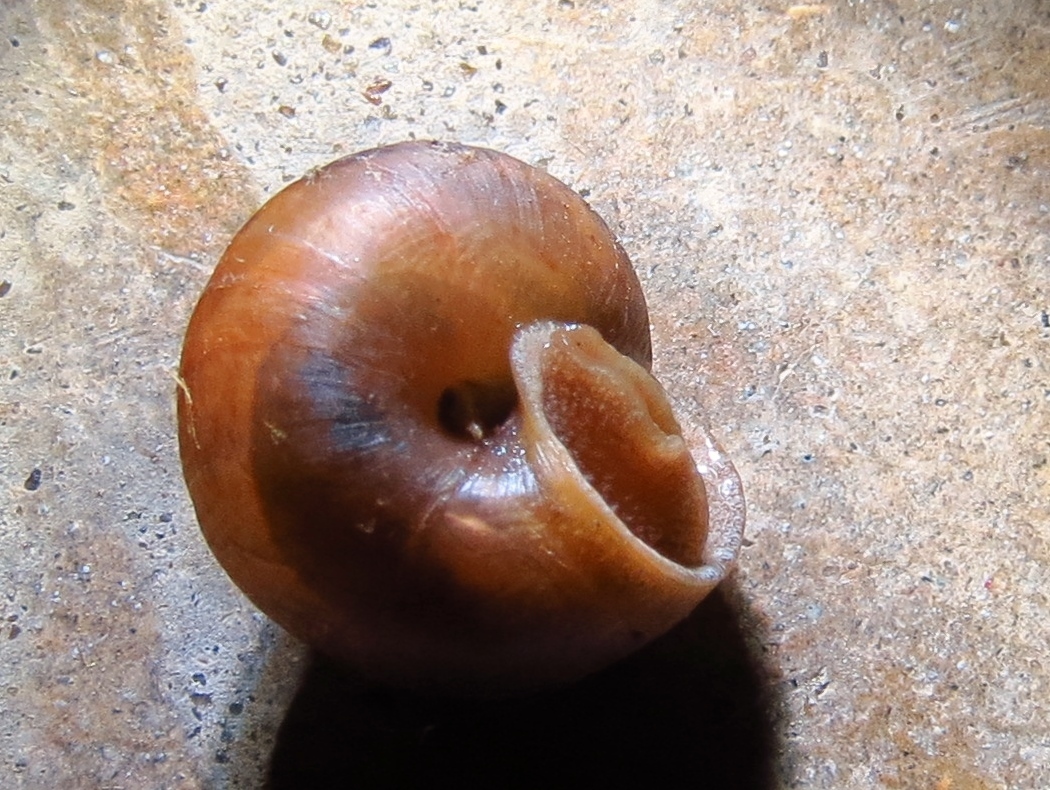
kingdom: Animalia
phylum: Mollusca
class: Gastropoda
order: Stylommatophora
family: Camaenidae
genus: Bradybaena
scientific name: Bradybaena similaris
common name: Asian trampsnail
